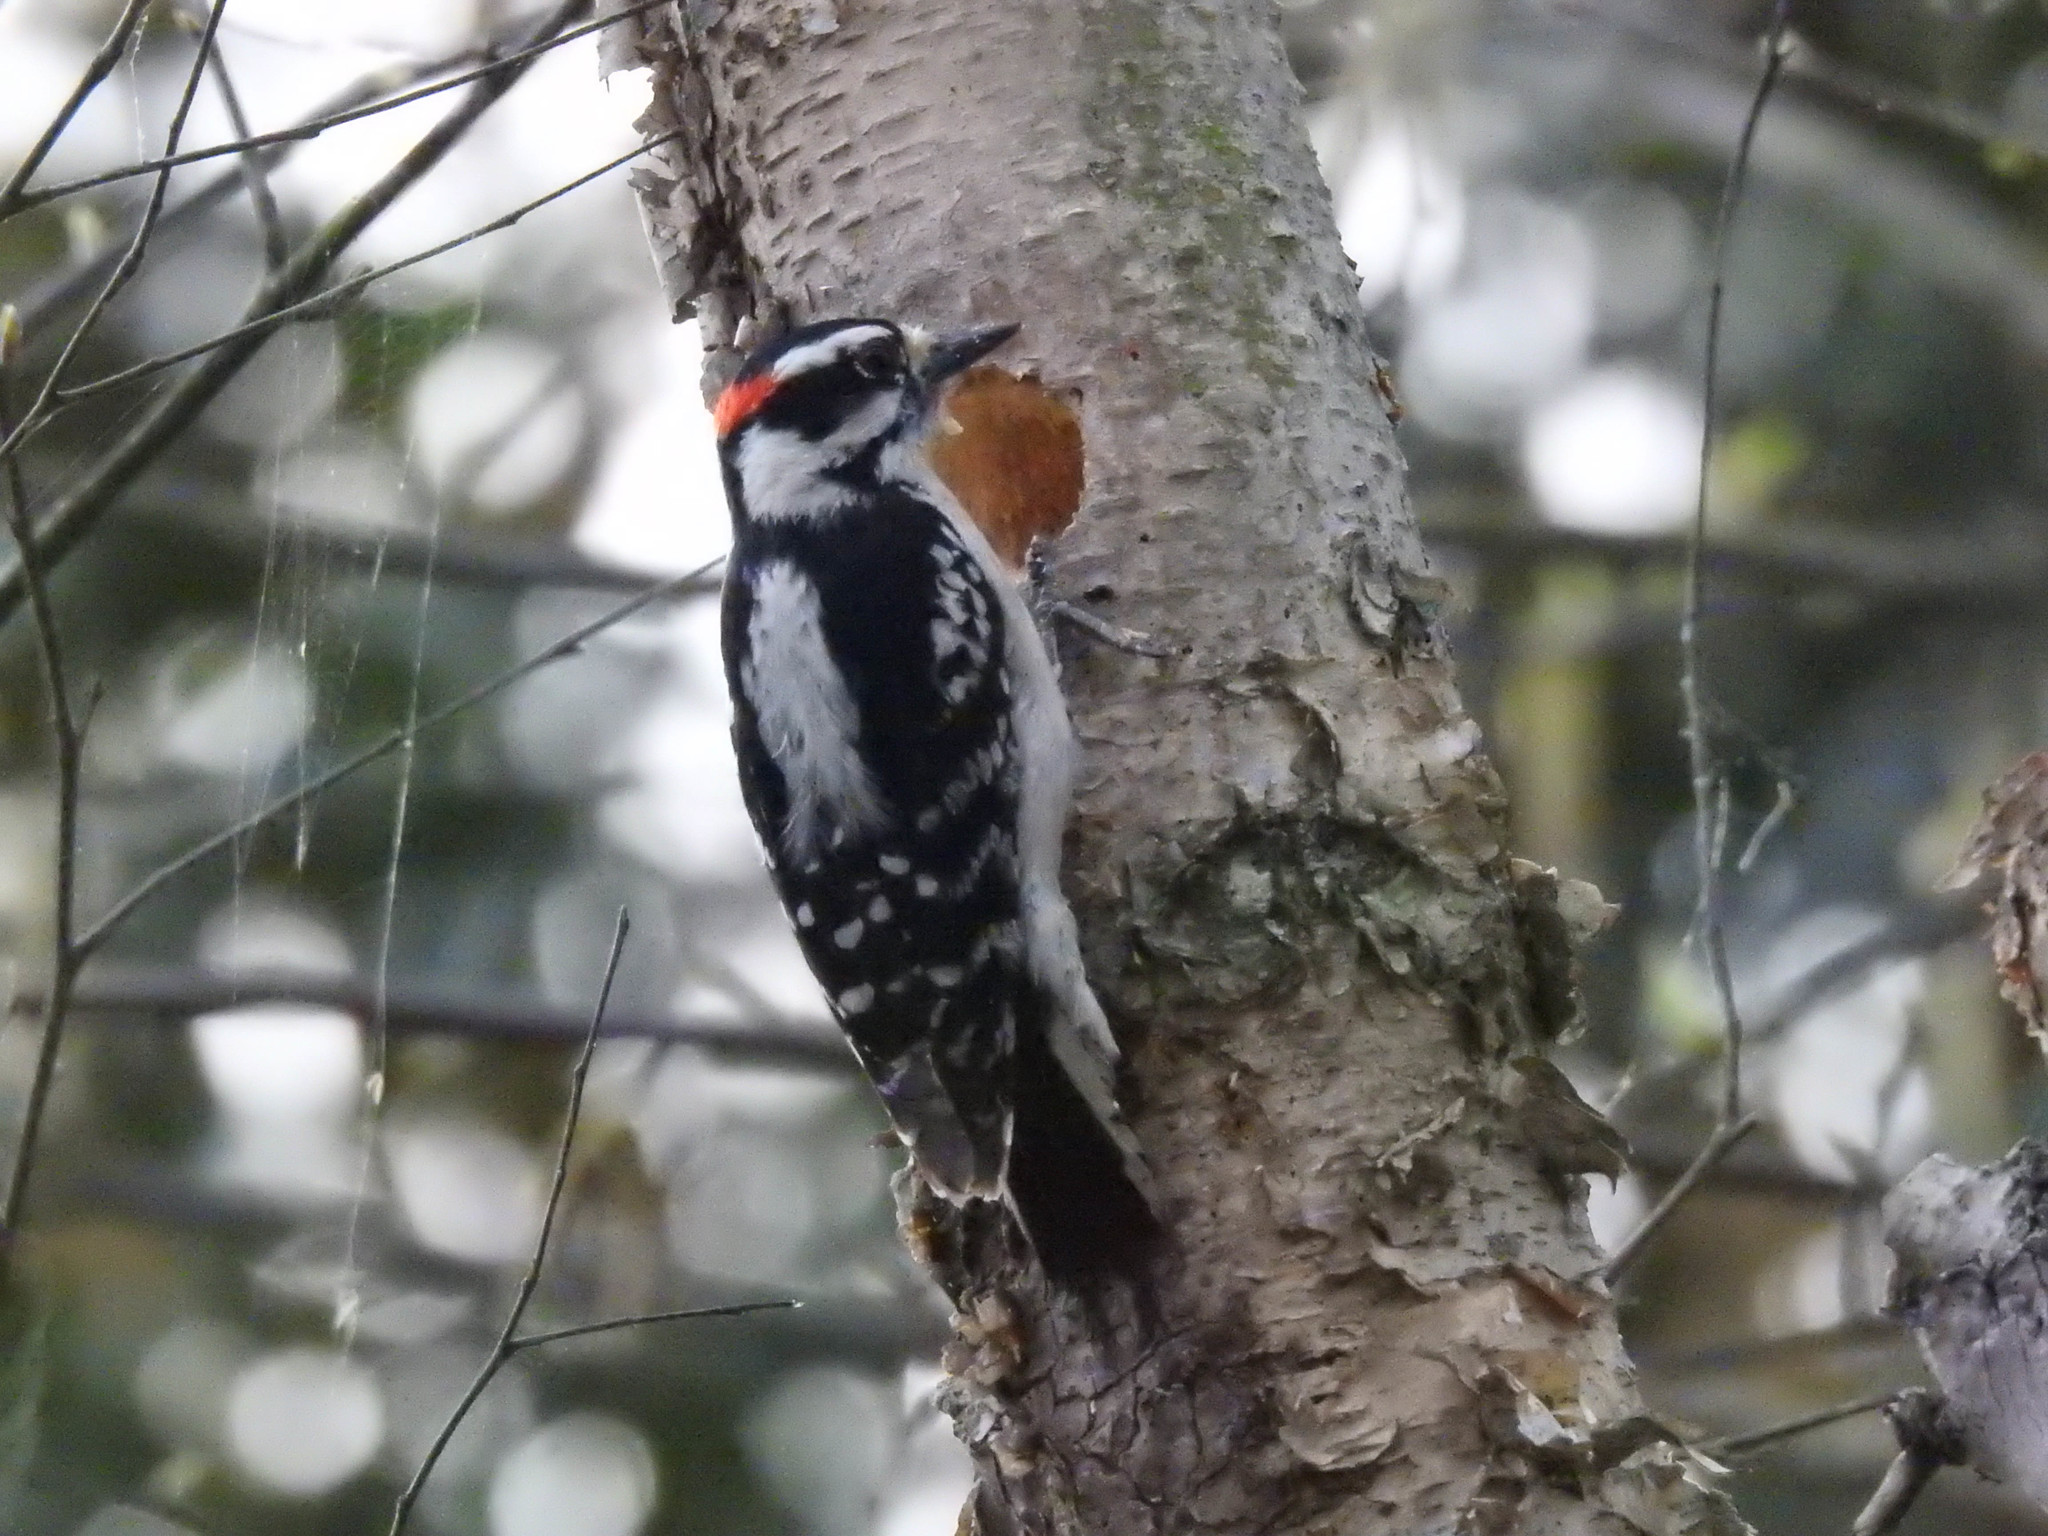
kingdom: Animalia
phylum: Chordata
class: Aves
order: Piciformes
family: Picidae
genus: Dryobates
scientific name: Dryobates pubescens
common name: Downy woodpecker
